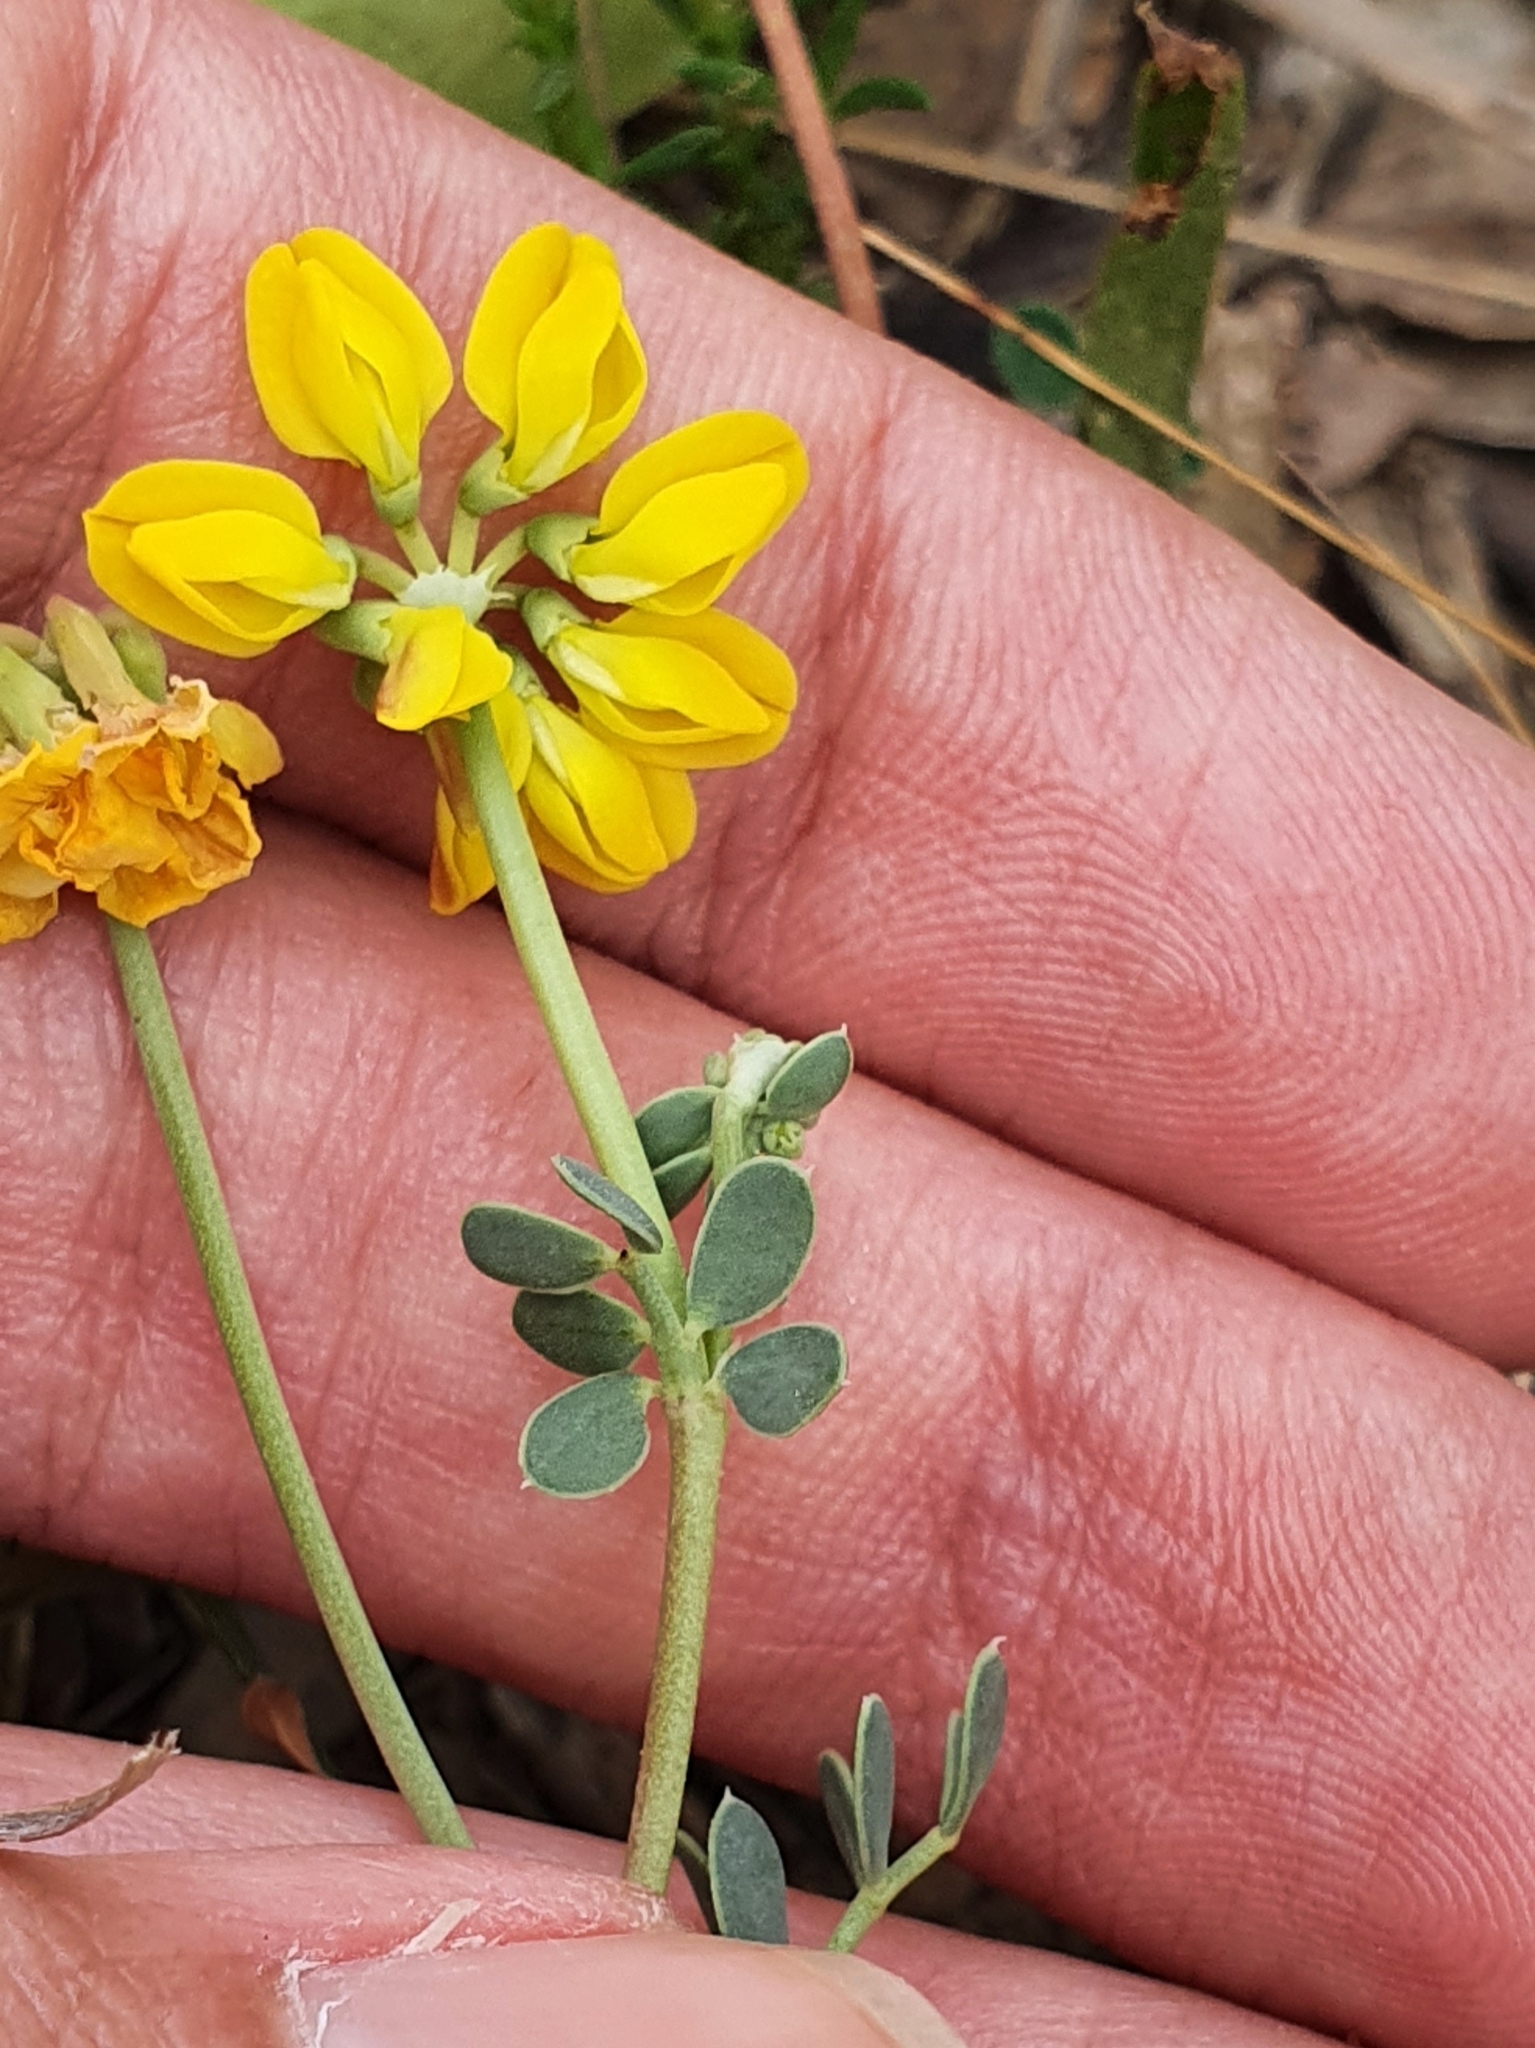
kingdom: Plantae
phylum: Tracheophyta
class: Magnoliopsida
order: Fabales
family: Fabaceae
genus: Coronilla
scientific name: Coronilla minima
